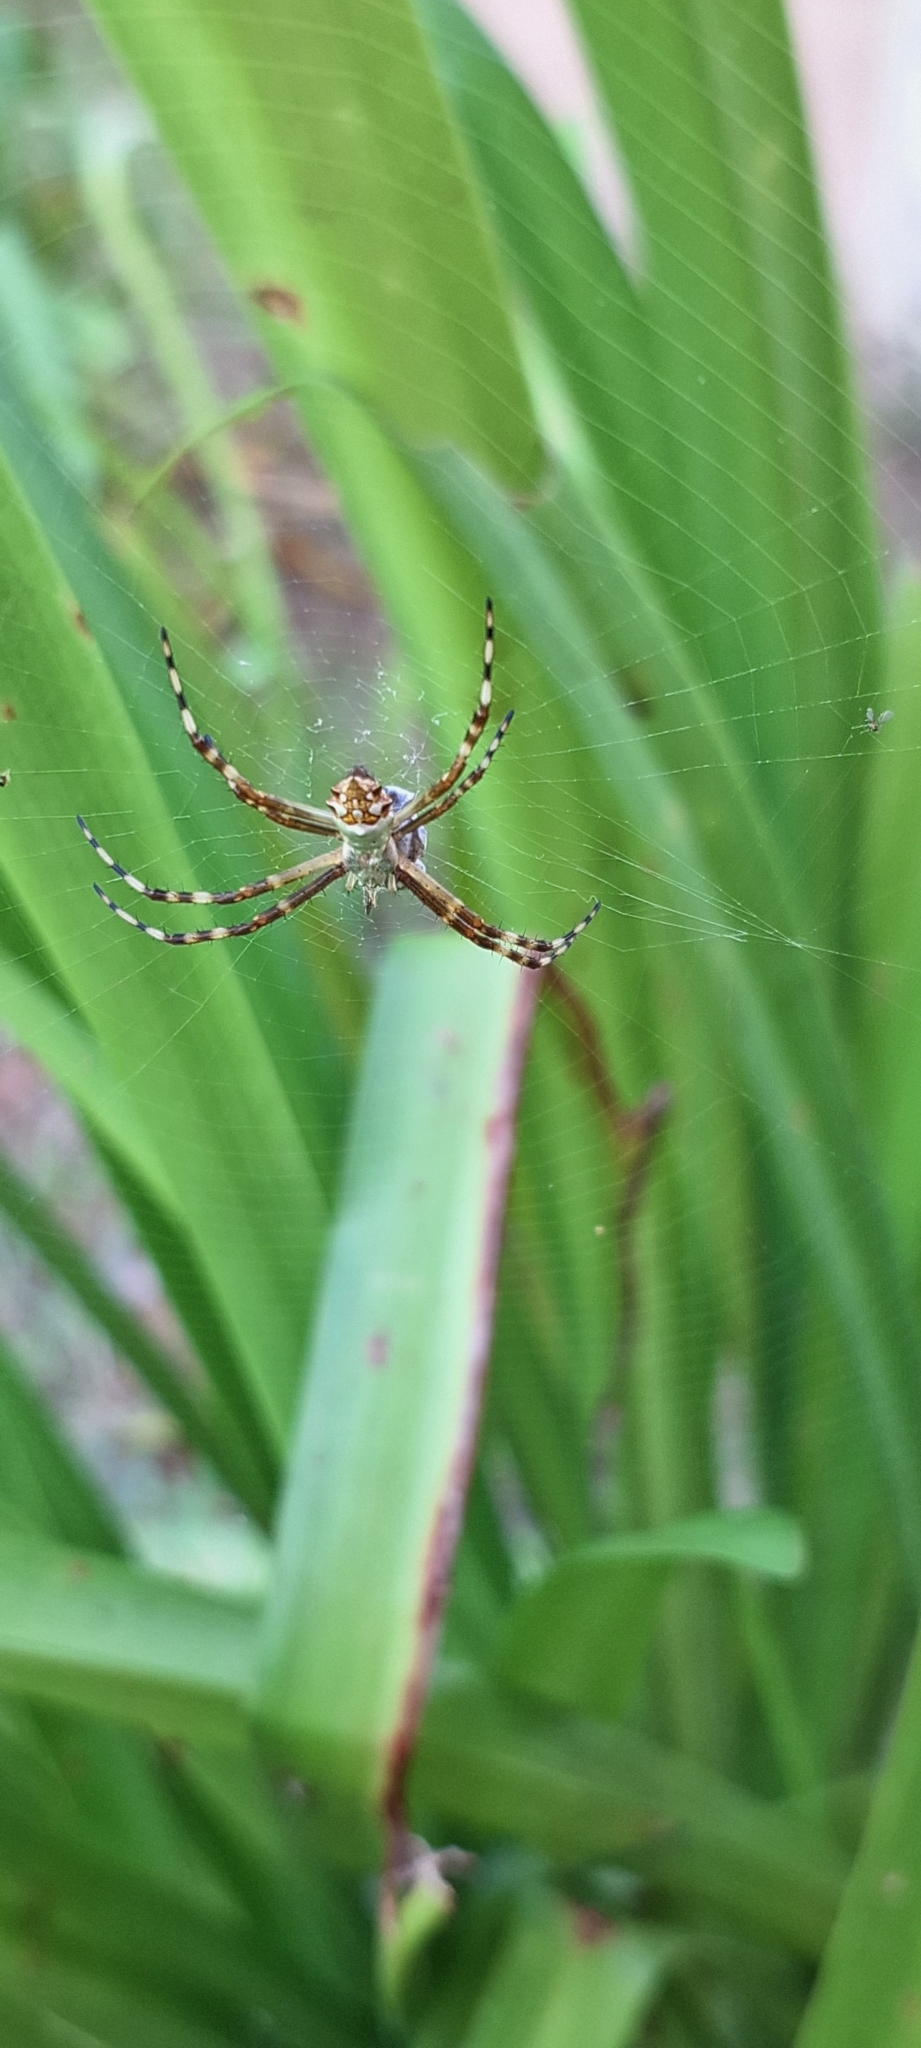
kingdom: Animalia
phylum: Arthropoda
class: Arachnida
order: Araneae
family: Araneidae
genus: Argiope
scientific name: Argiope argentata
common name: Orb weavers
